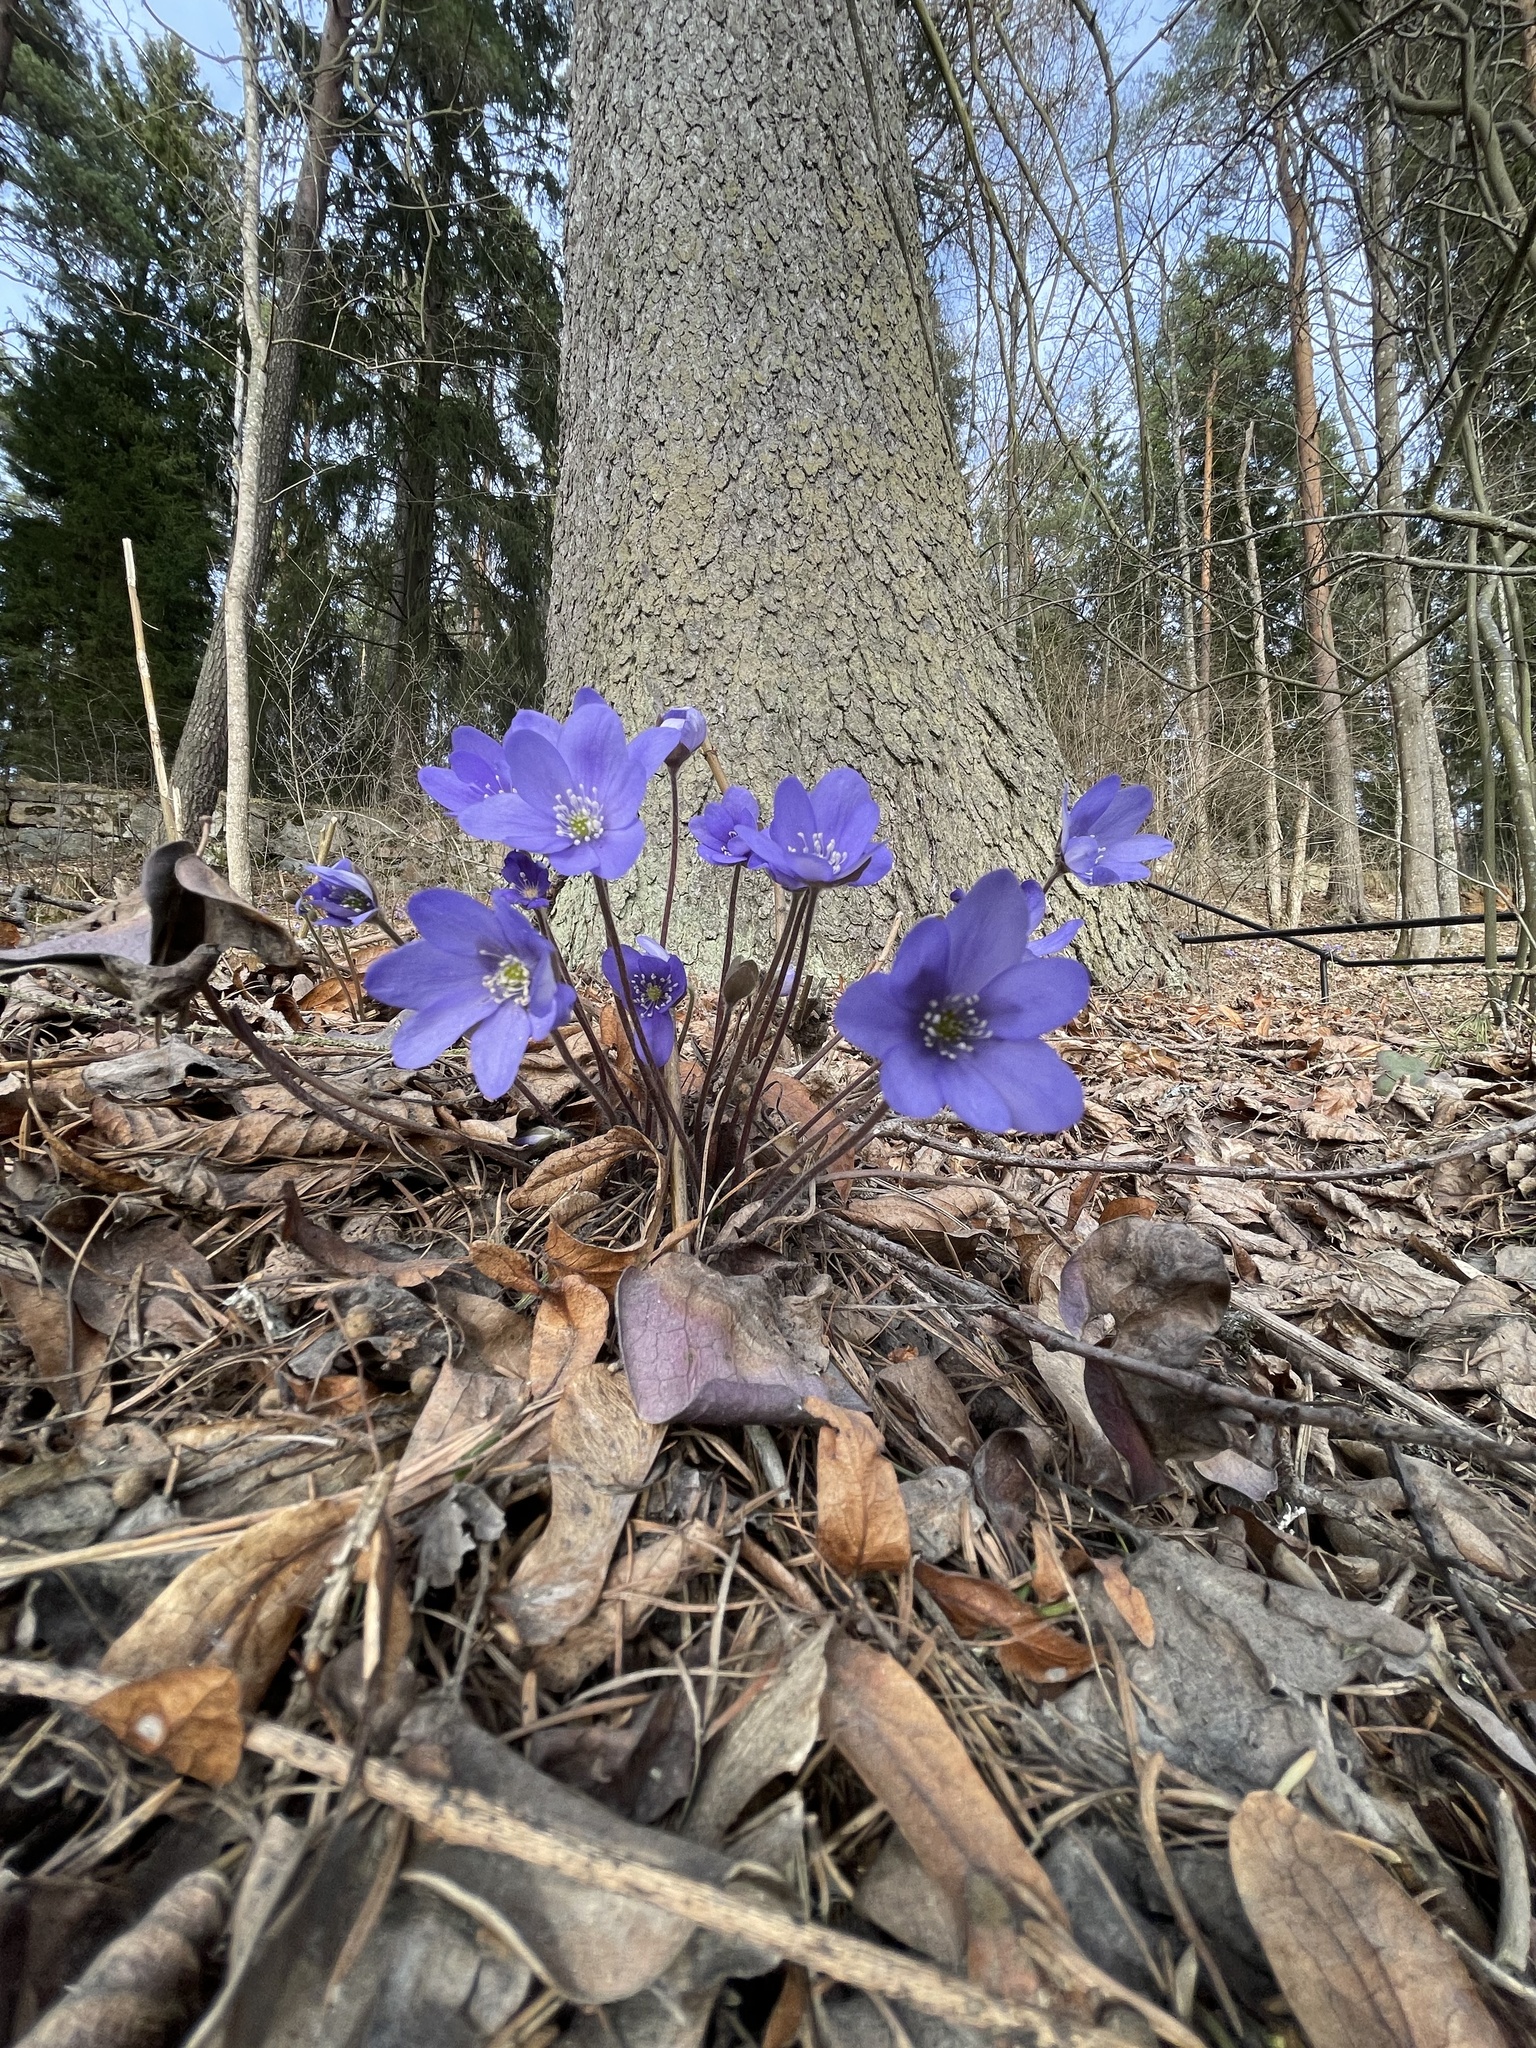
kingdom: Plantae
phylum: Tracheophyta
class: Magnoliopsida
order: Ranunculales
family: Ranunculaceae
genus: Hepatica
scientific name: Hepatica nobilis
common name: Liverleaf
